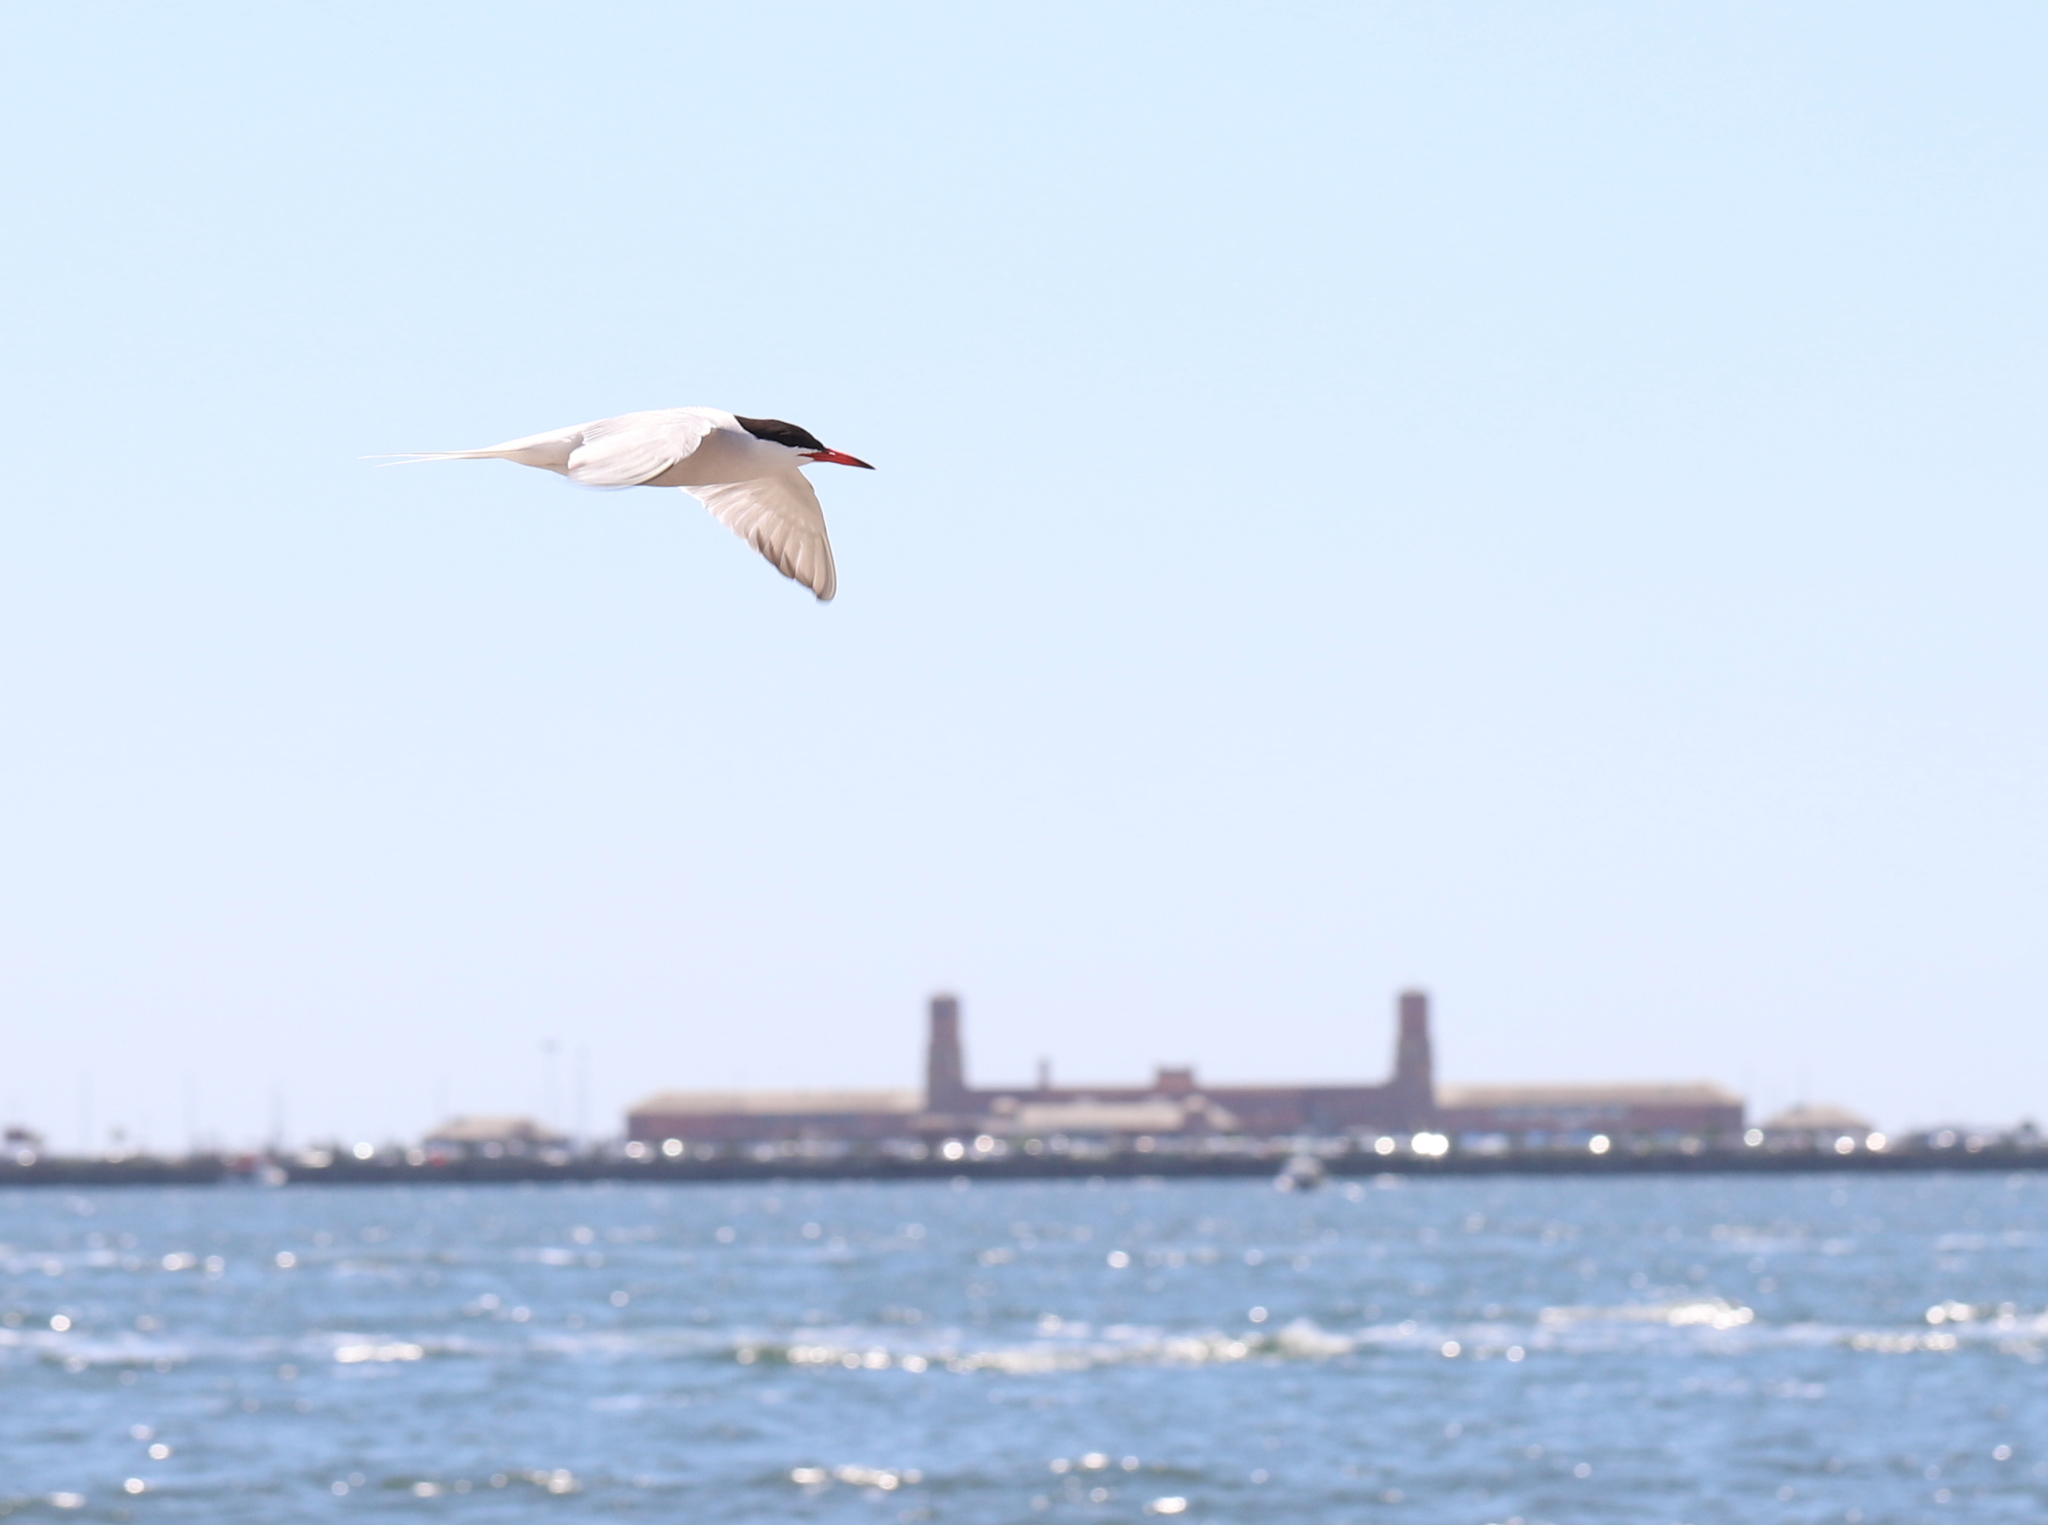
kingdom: Animalia
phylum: Chordata
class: Aves
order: Charadriiformes
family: Laridae
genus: Sterna
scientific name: Sterna hirundo
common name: Common tern
